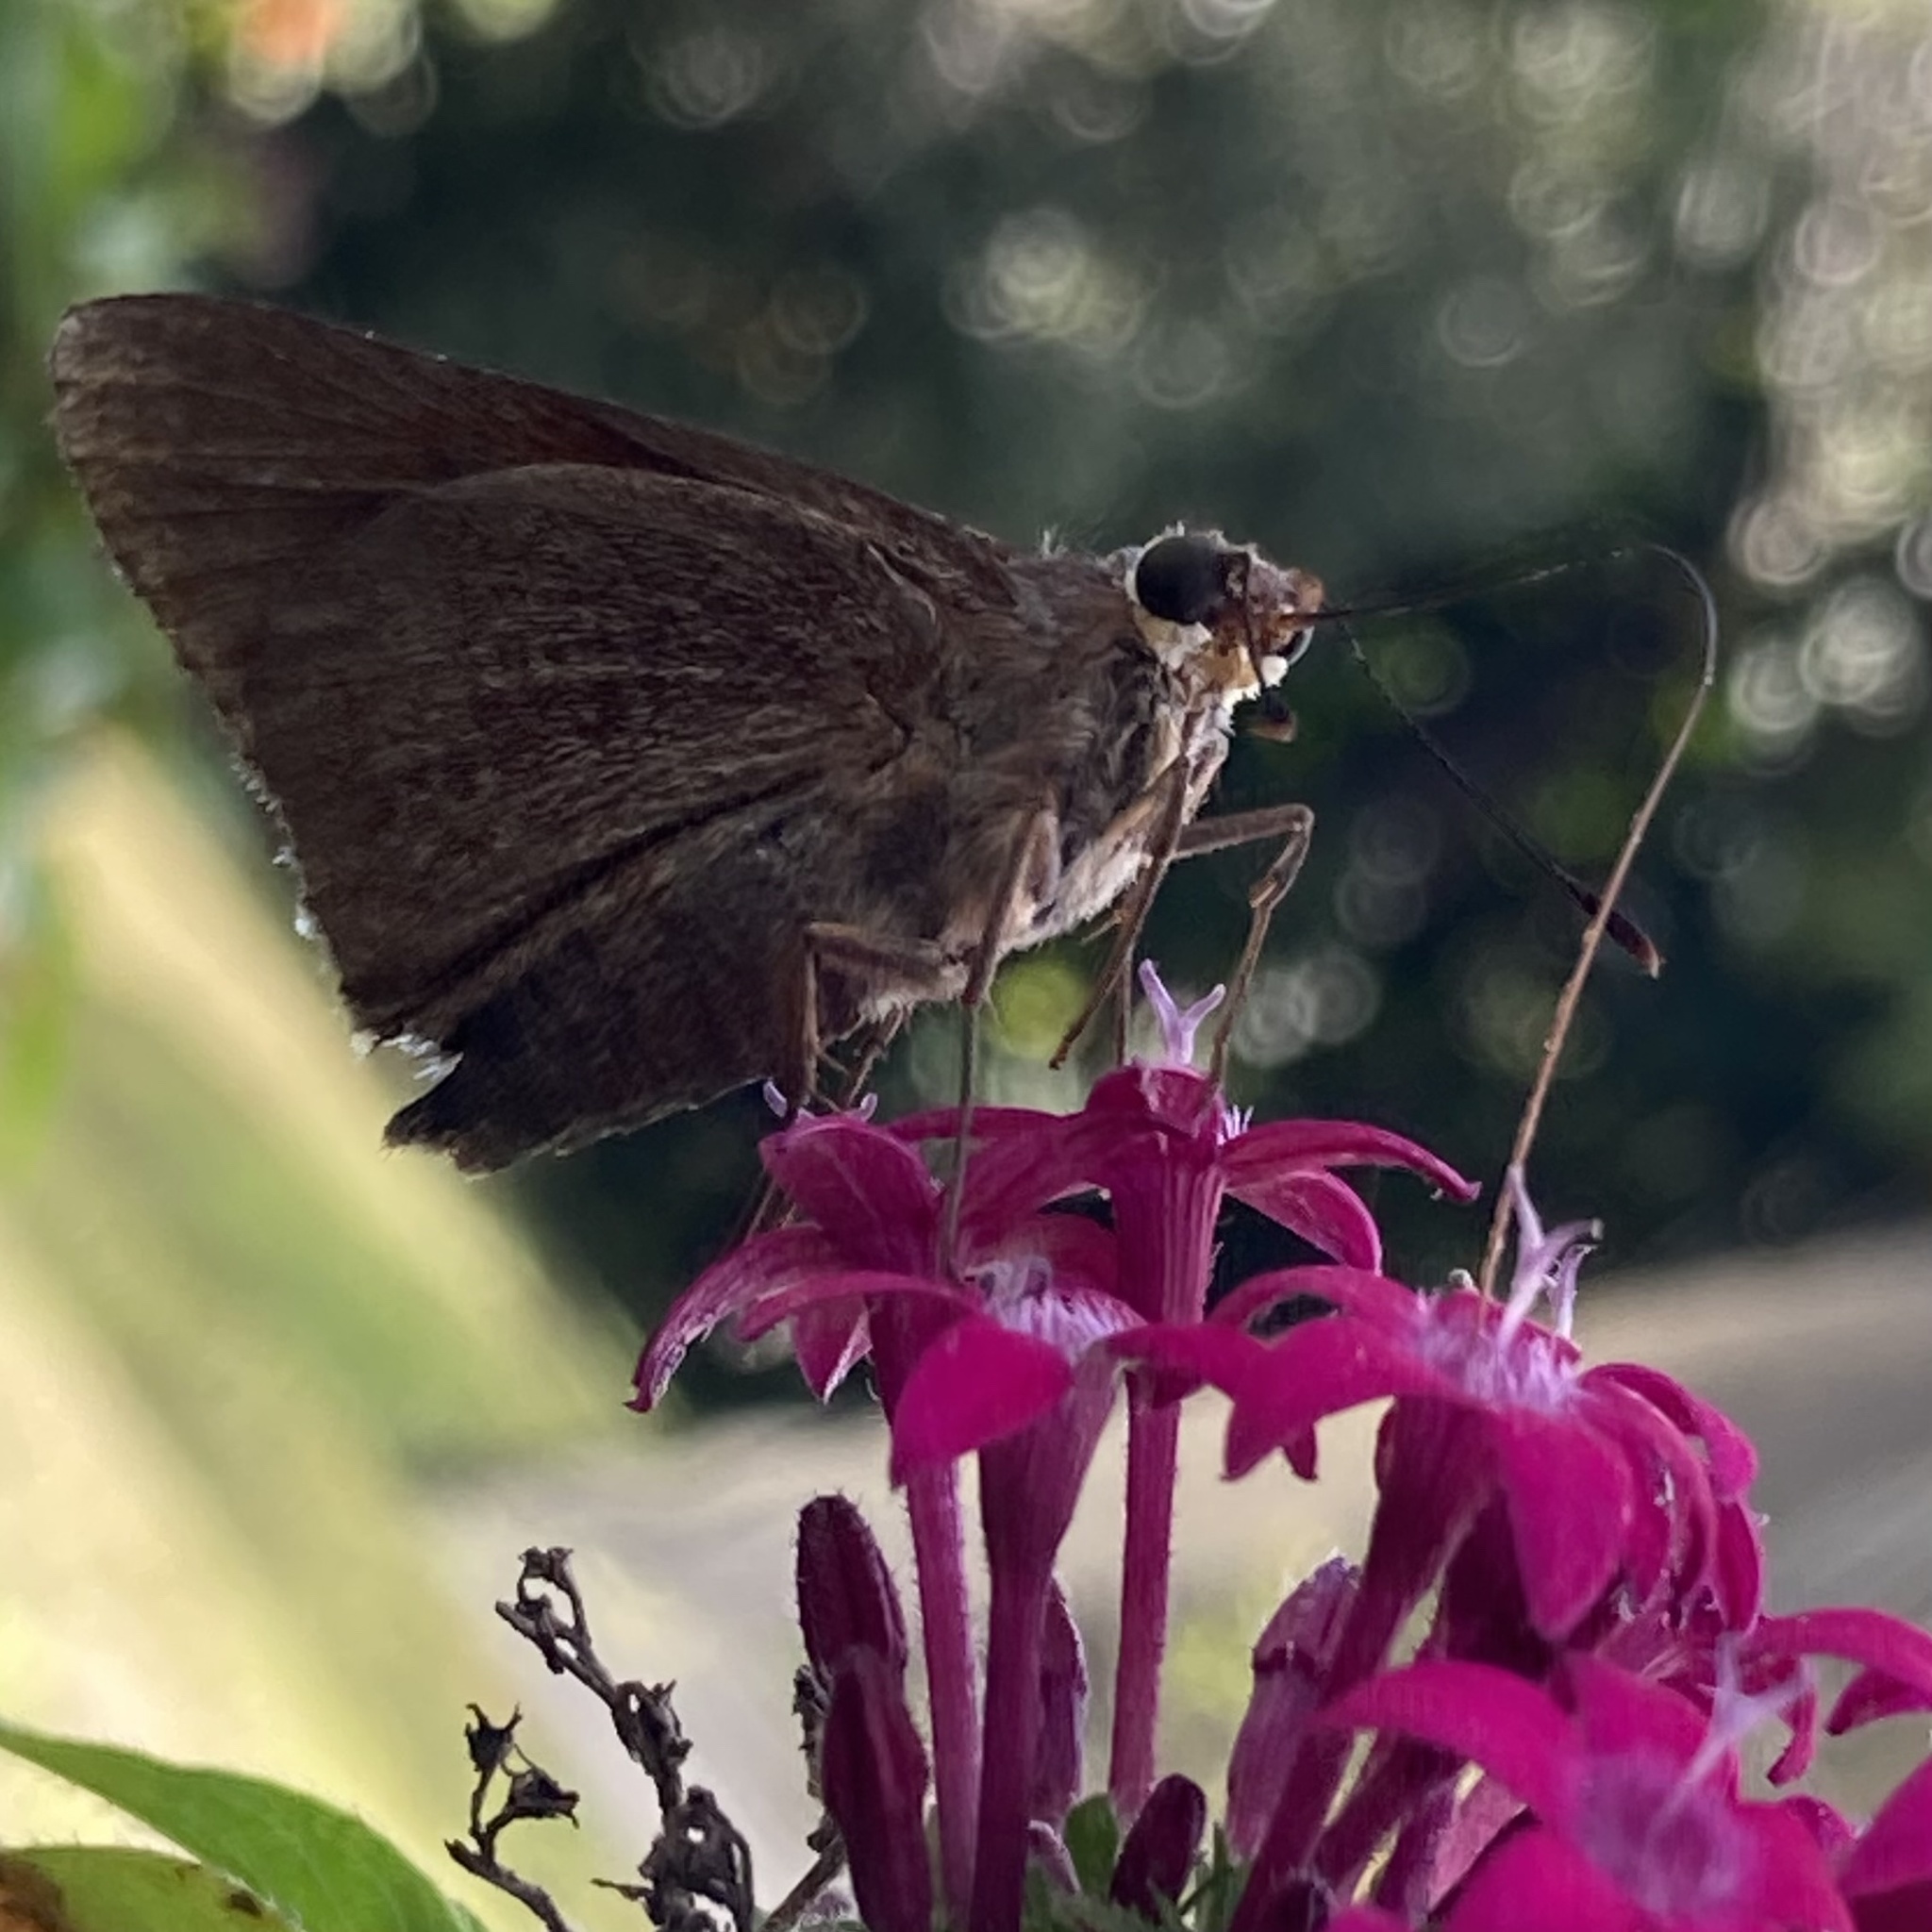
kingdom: Animalia
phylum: Arthropoda
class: Insecta
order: Lepidoptera
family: Hesperiidae
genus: Asbolis
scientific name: Asbolis capucinus
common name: Monk skipper
